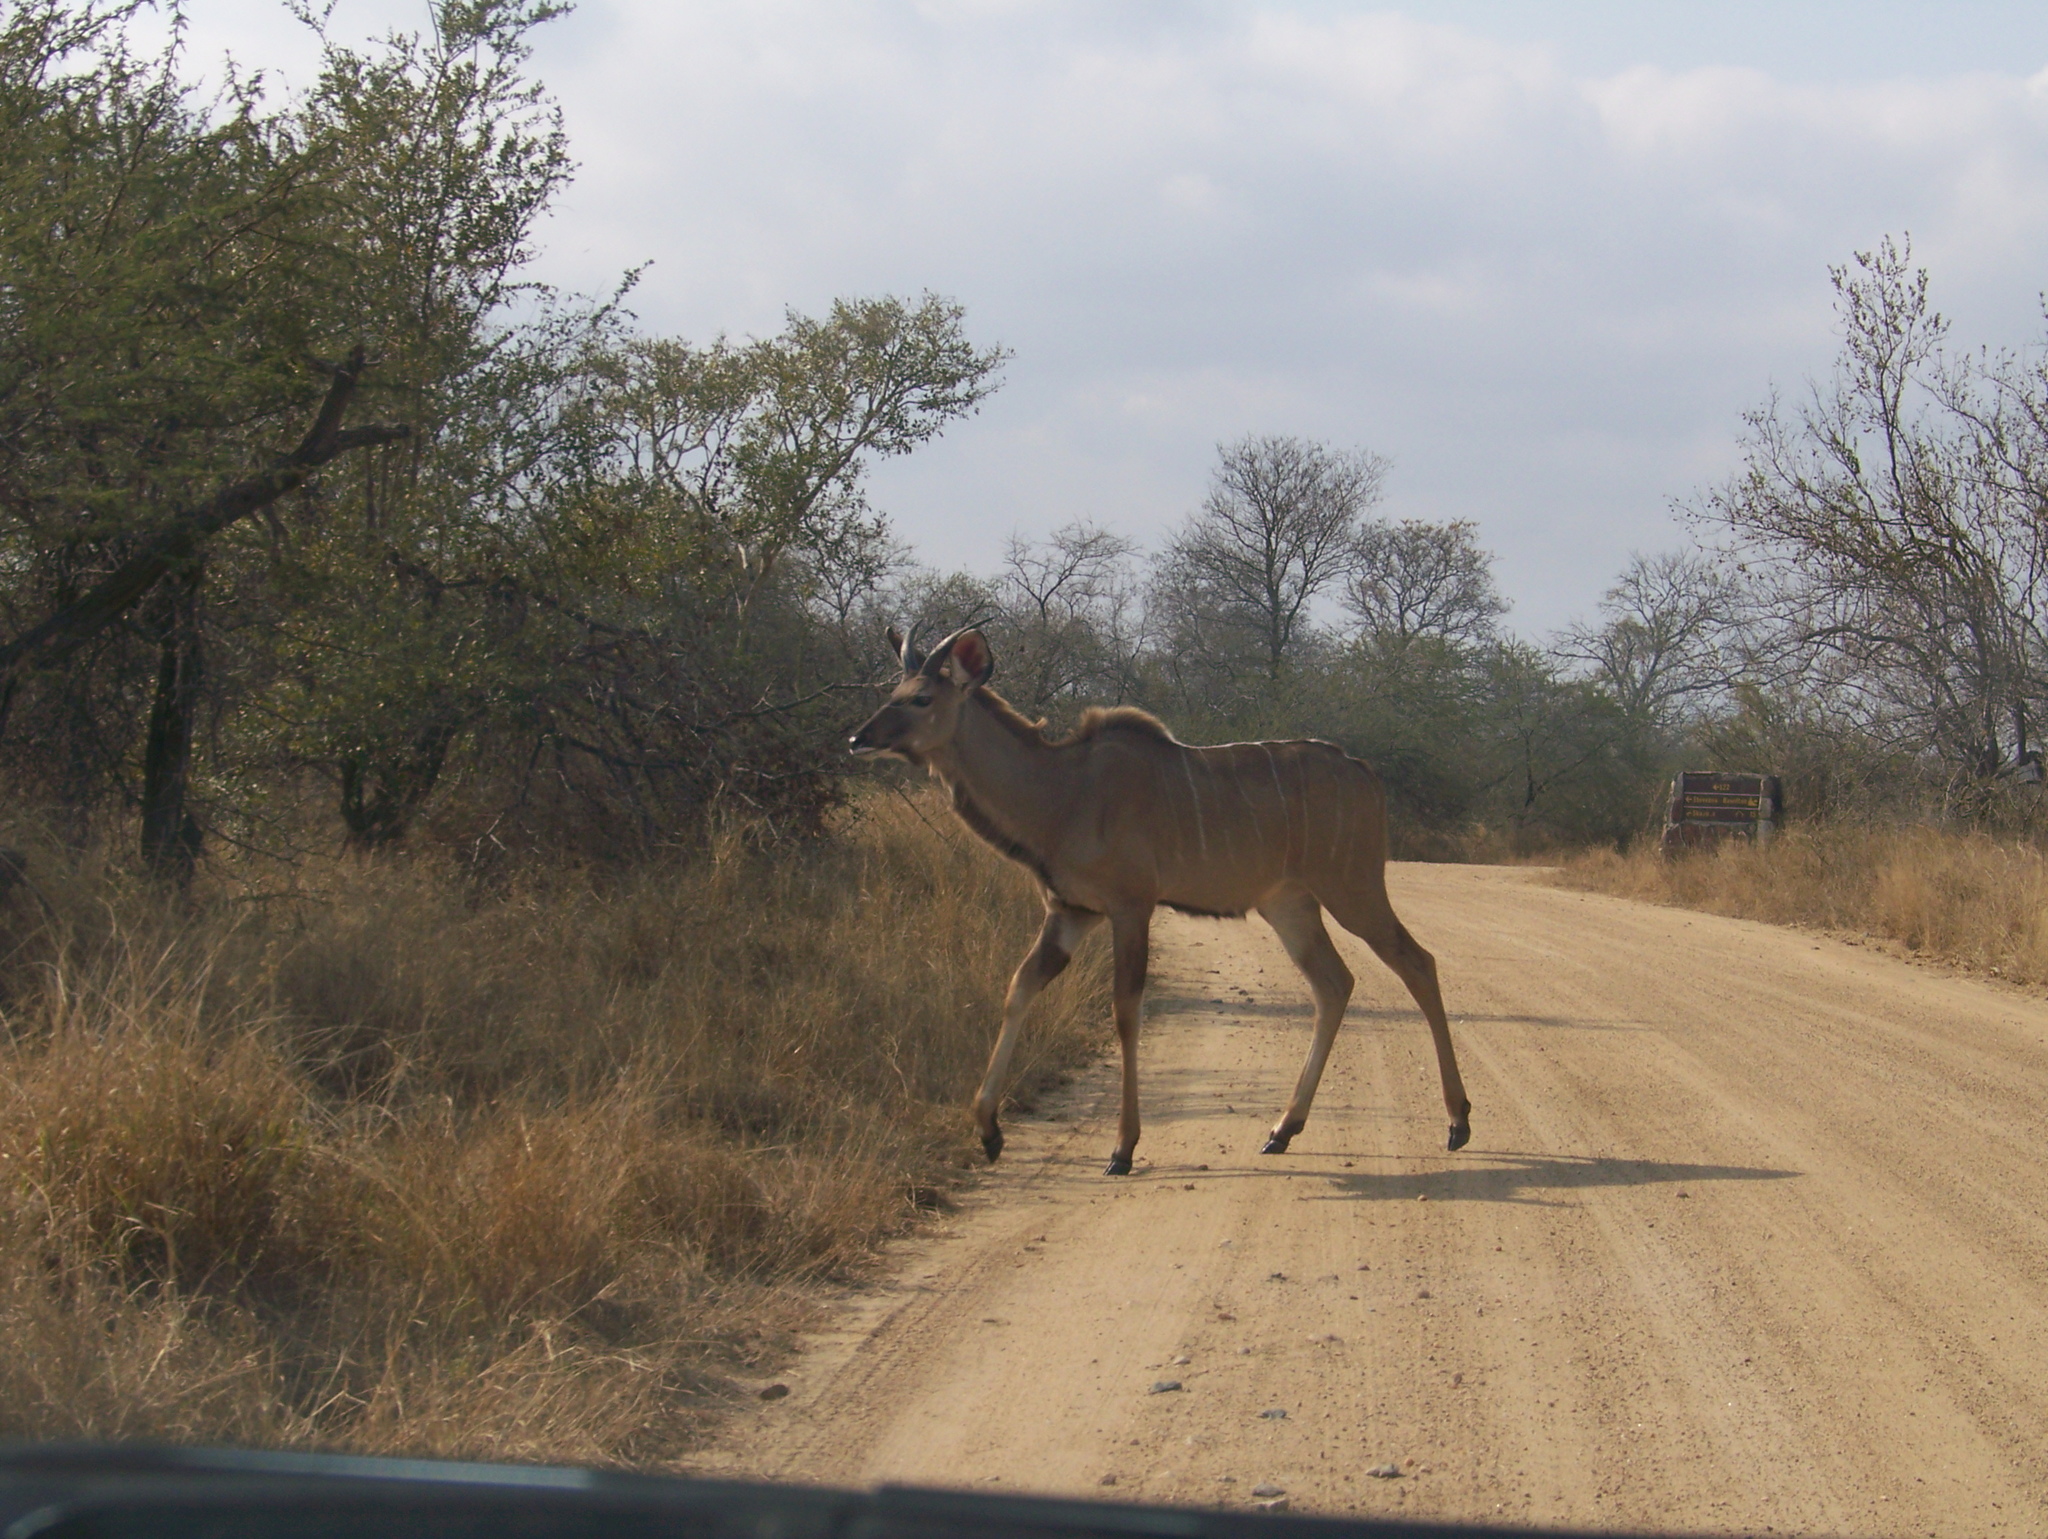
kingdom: Animalia
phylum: Chordata
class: Mammalia
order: Artiodactyla
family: Bovidae
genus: Tragelaphus
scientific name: Tragelaphus strepsiceros
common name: Greater kudu
